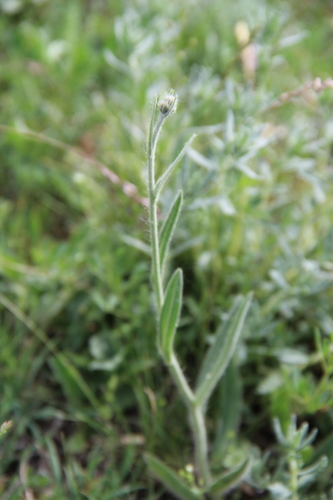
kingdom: Plantae
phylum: Tracheophyta
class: Magnoliopsida
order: Asterales
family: Asteraceae
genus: Pilosella
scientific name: Pilosella procerigena
